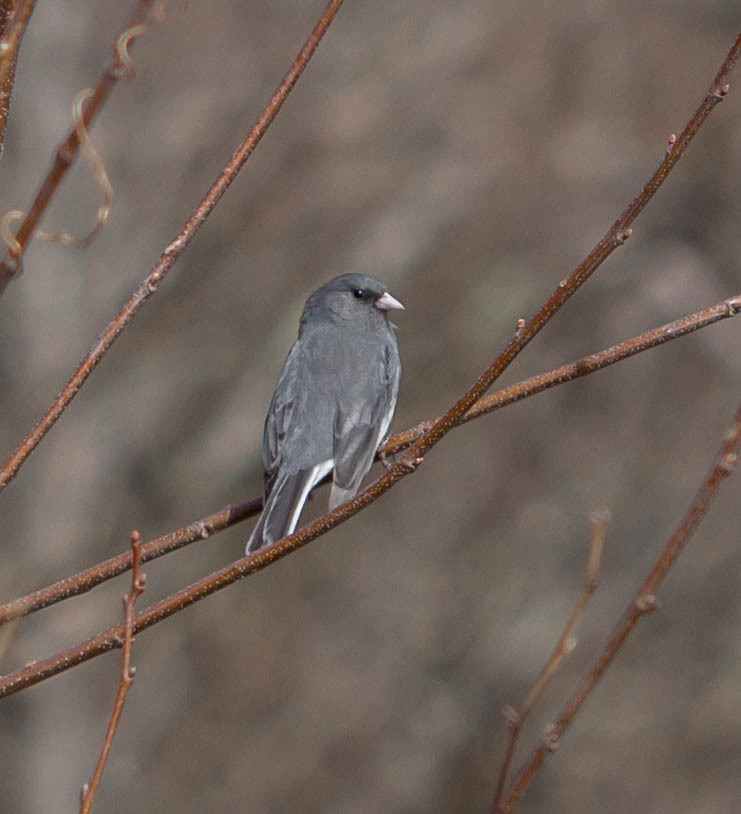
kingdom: Animalia
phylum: Chordata
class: Aves
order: Passeriformes
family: Passerellidae
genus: Junco
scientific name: Junco hyemalis
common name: Dark-eyed junco
